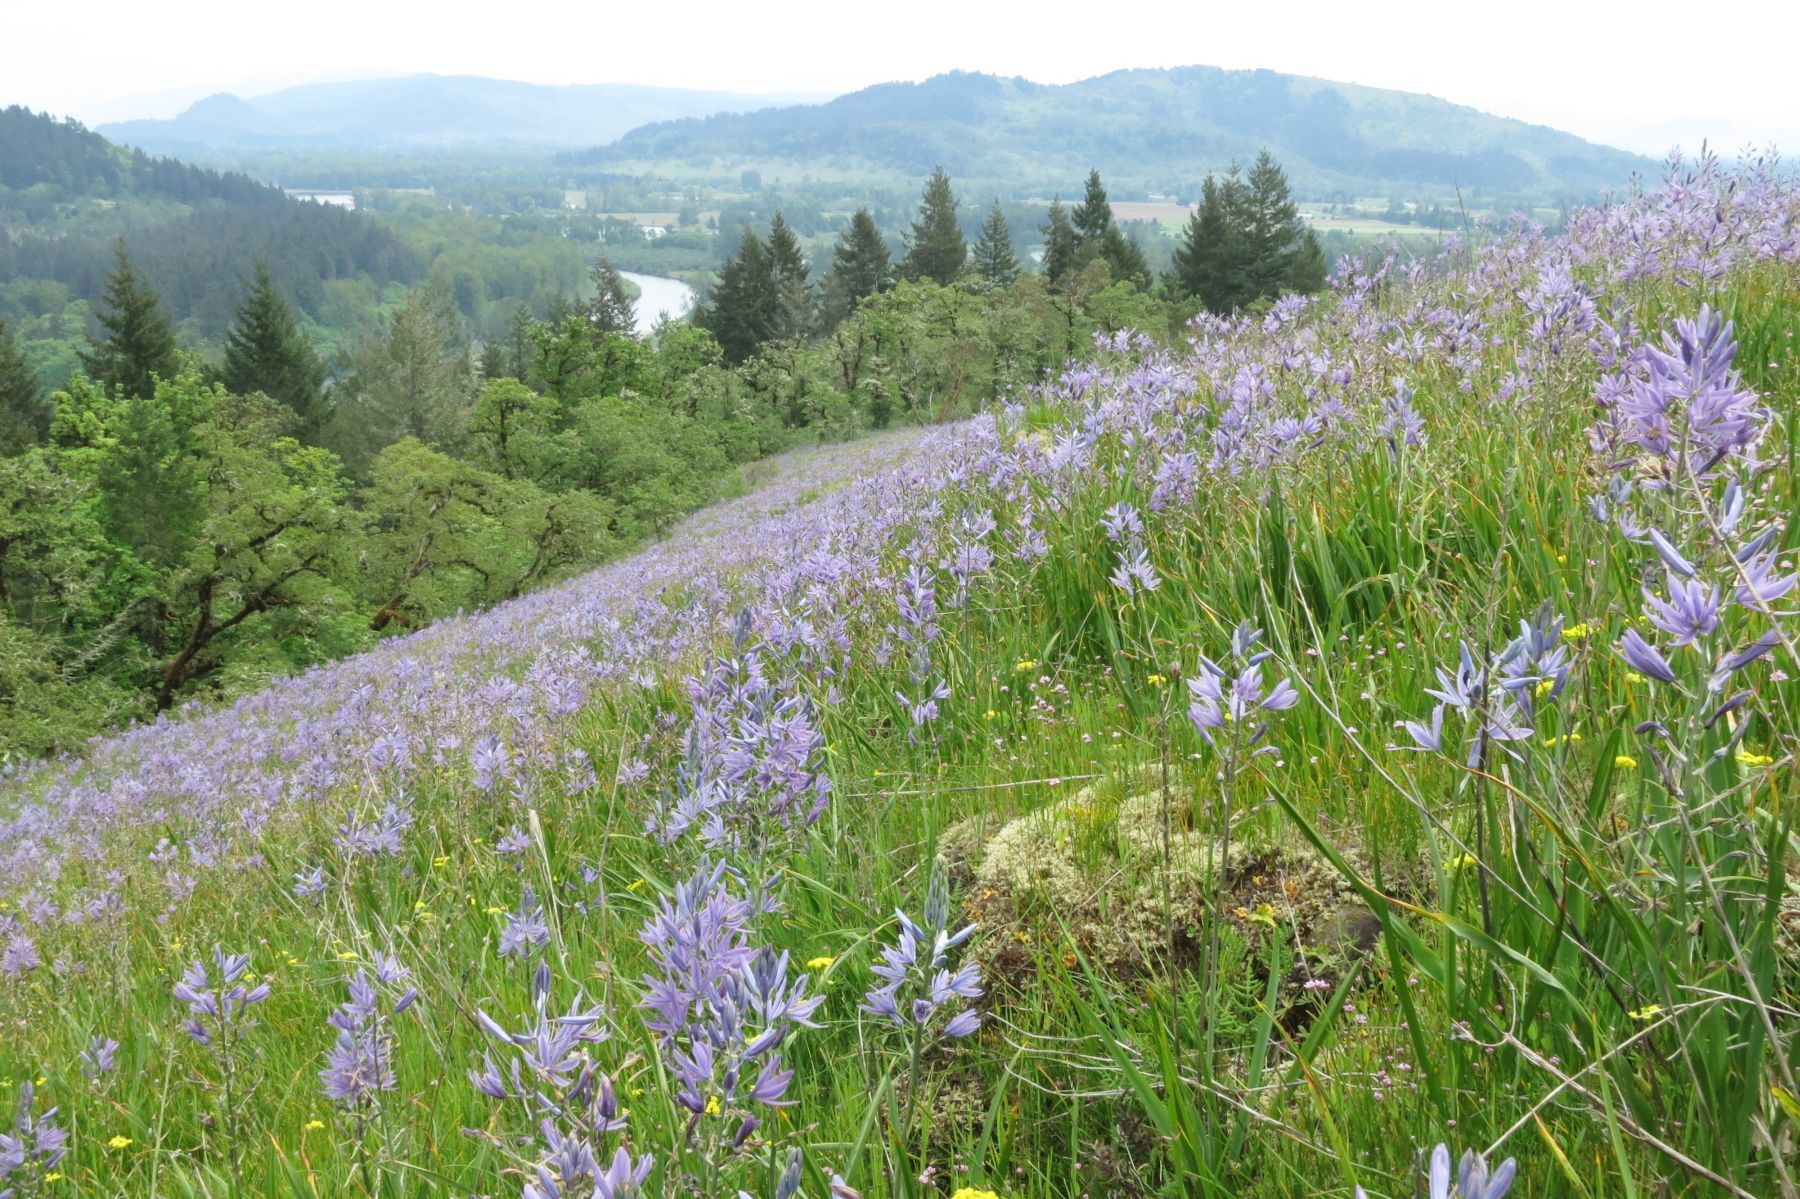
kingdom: Plantae
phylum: Tracheophyta
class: Liliopsida
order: Asparagales
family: Asparagaceae
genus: Camassia
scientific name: Camassia leichtlinii
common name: Leichtlin's camas
